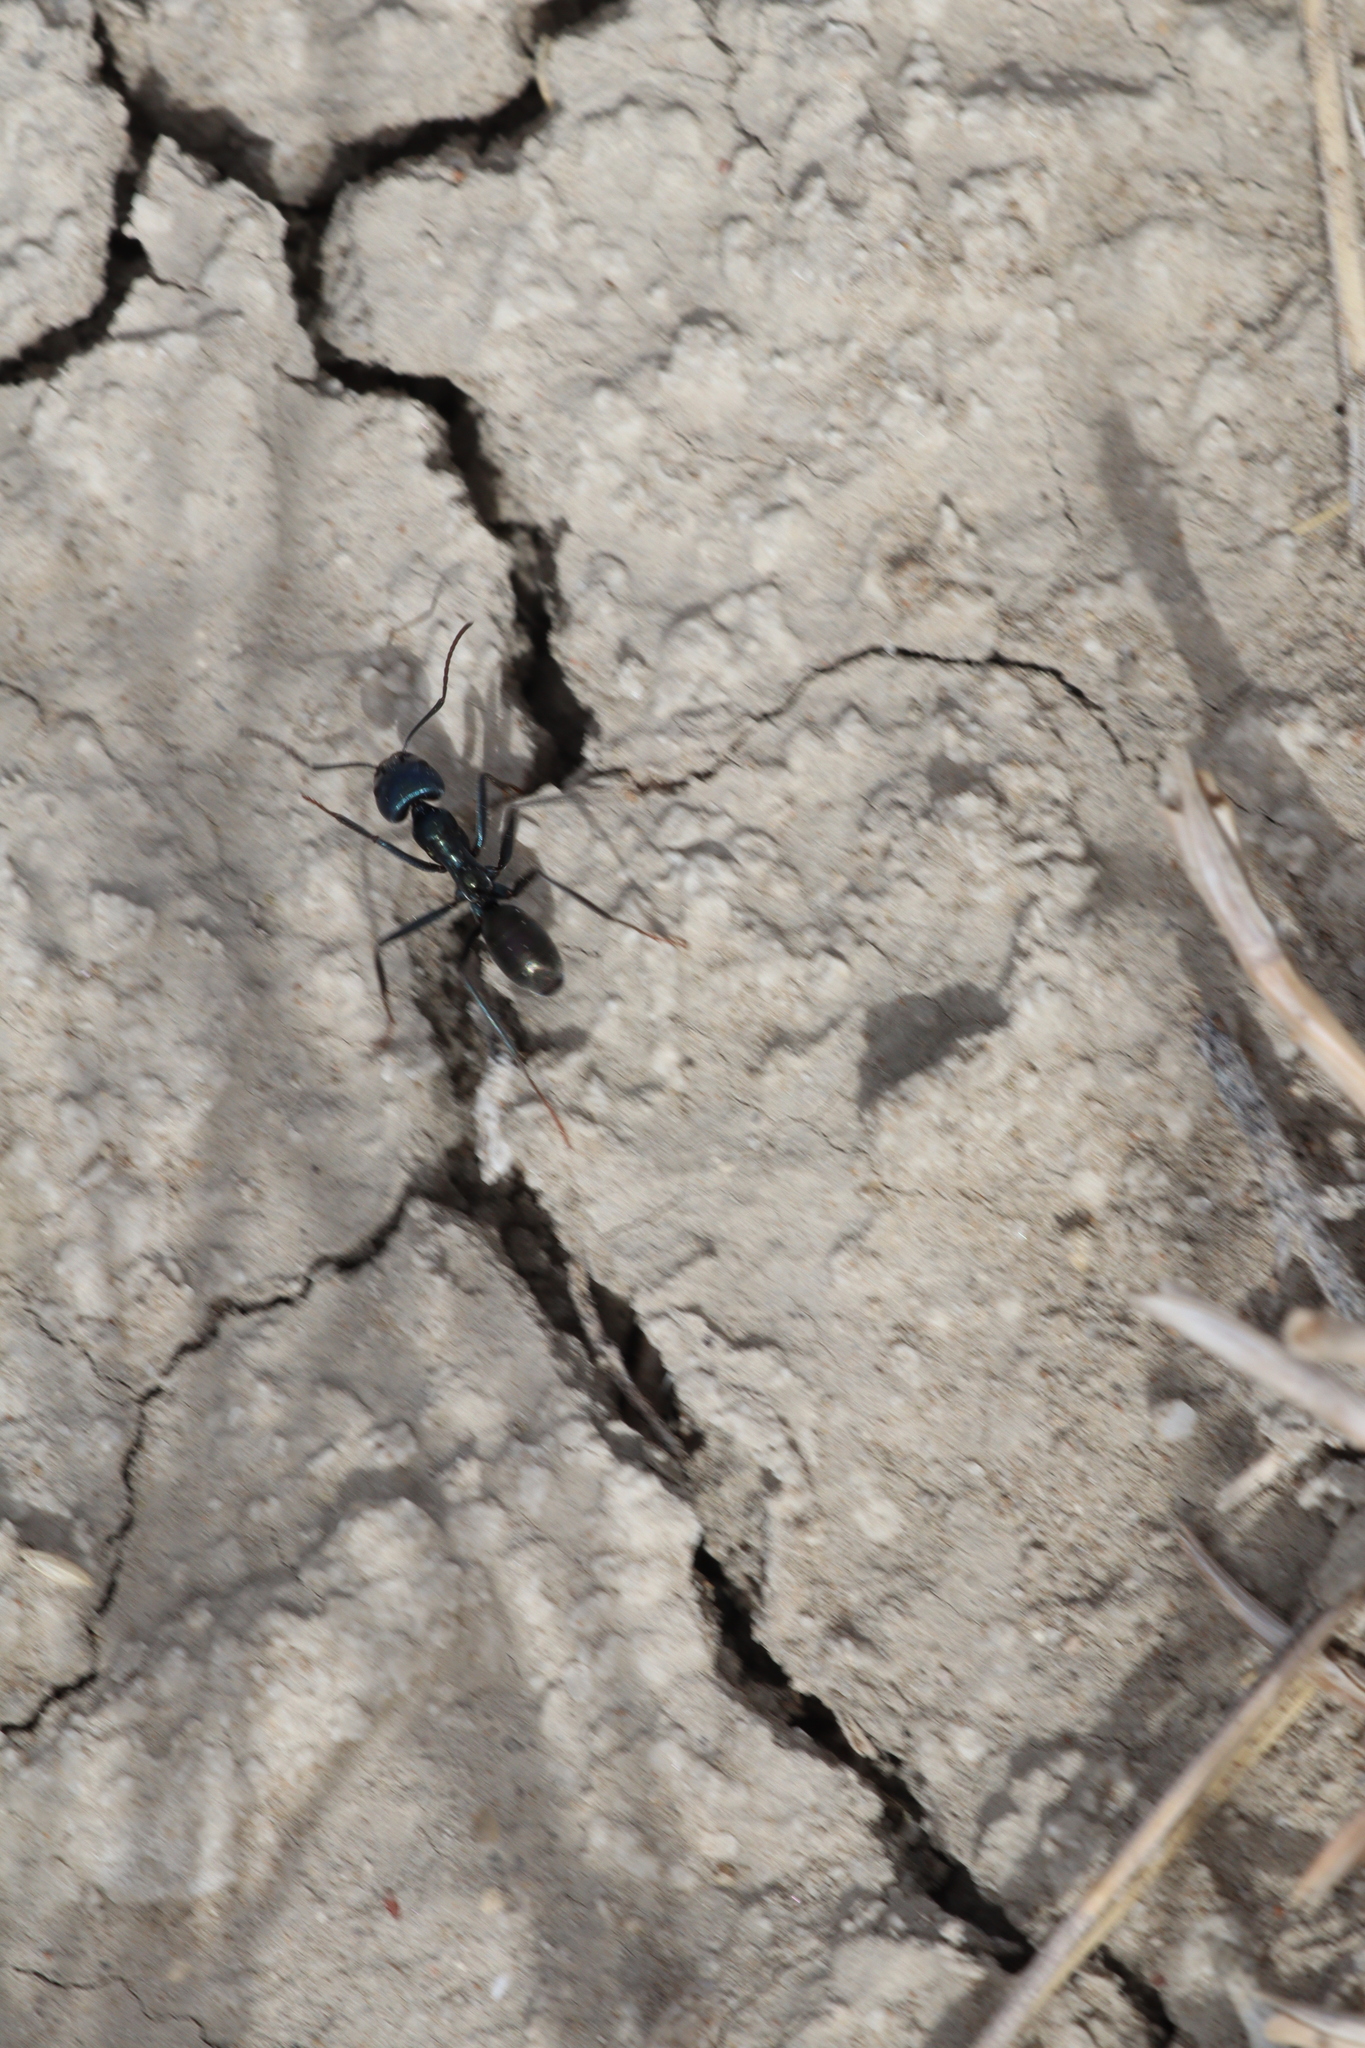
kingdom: Animalia
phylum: Arthropoda
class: Insecta
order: Hymenoptera
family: Formicidae
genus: Iridomyrmex
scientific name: Iridomyrmex lividus
